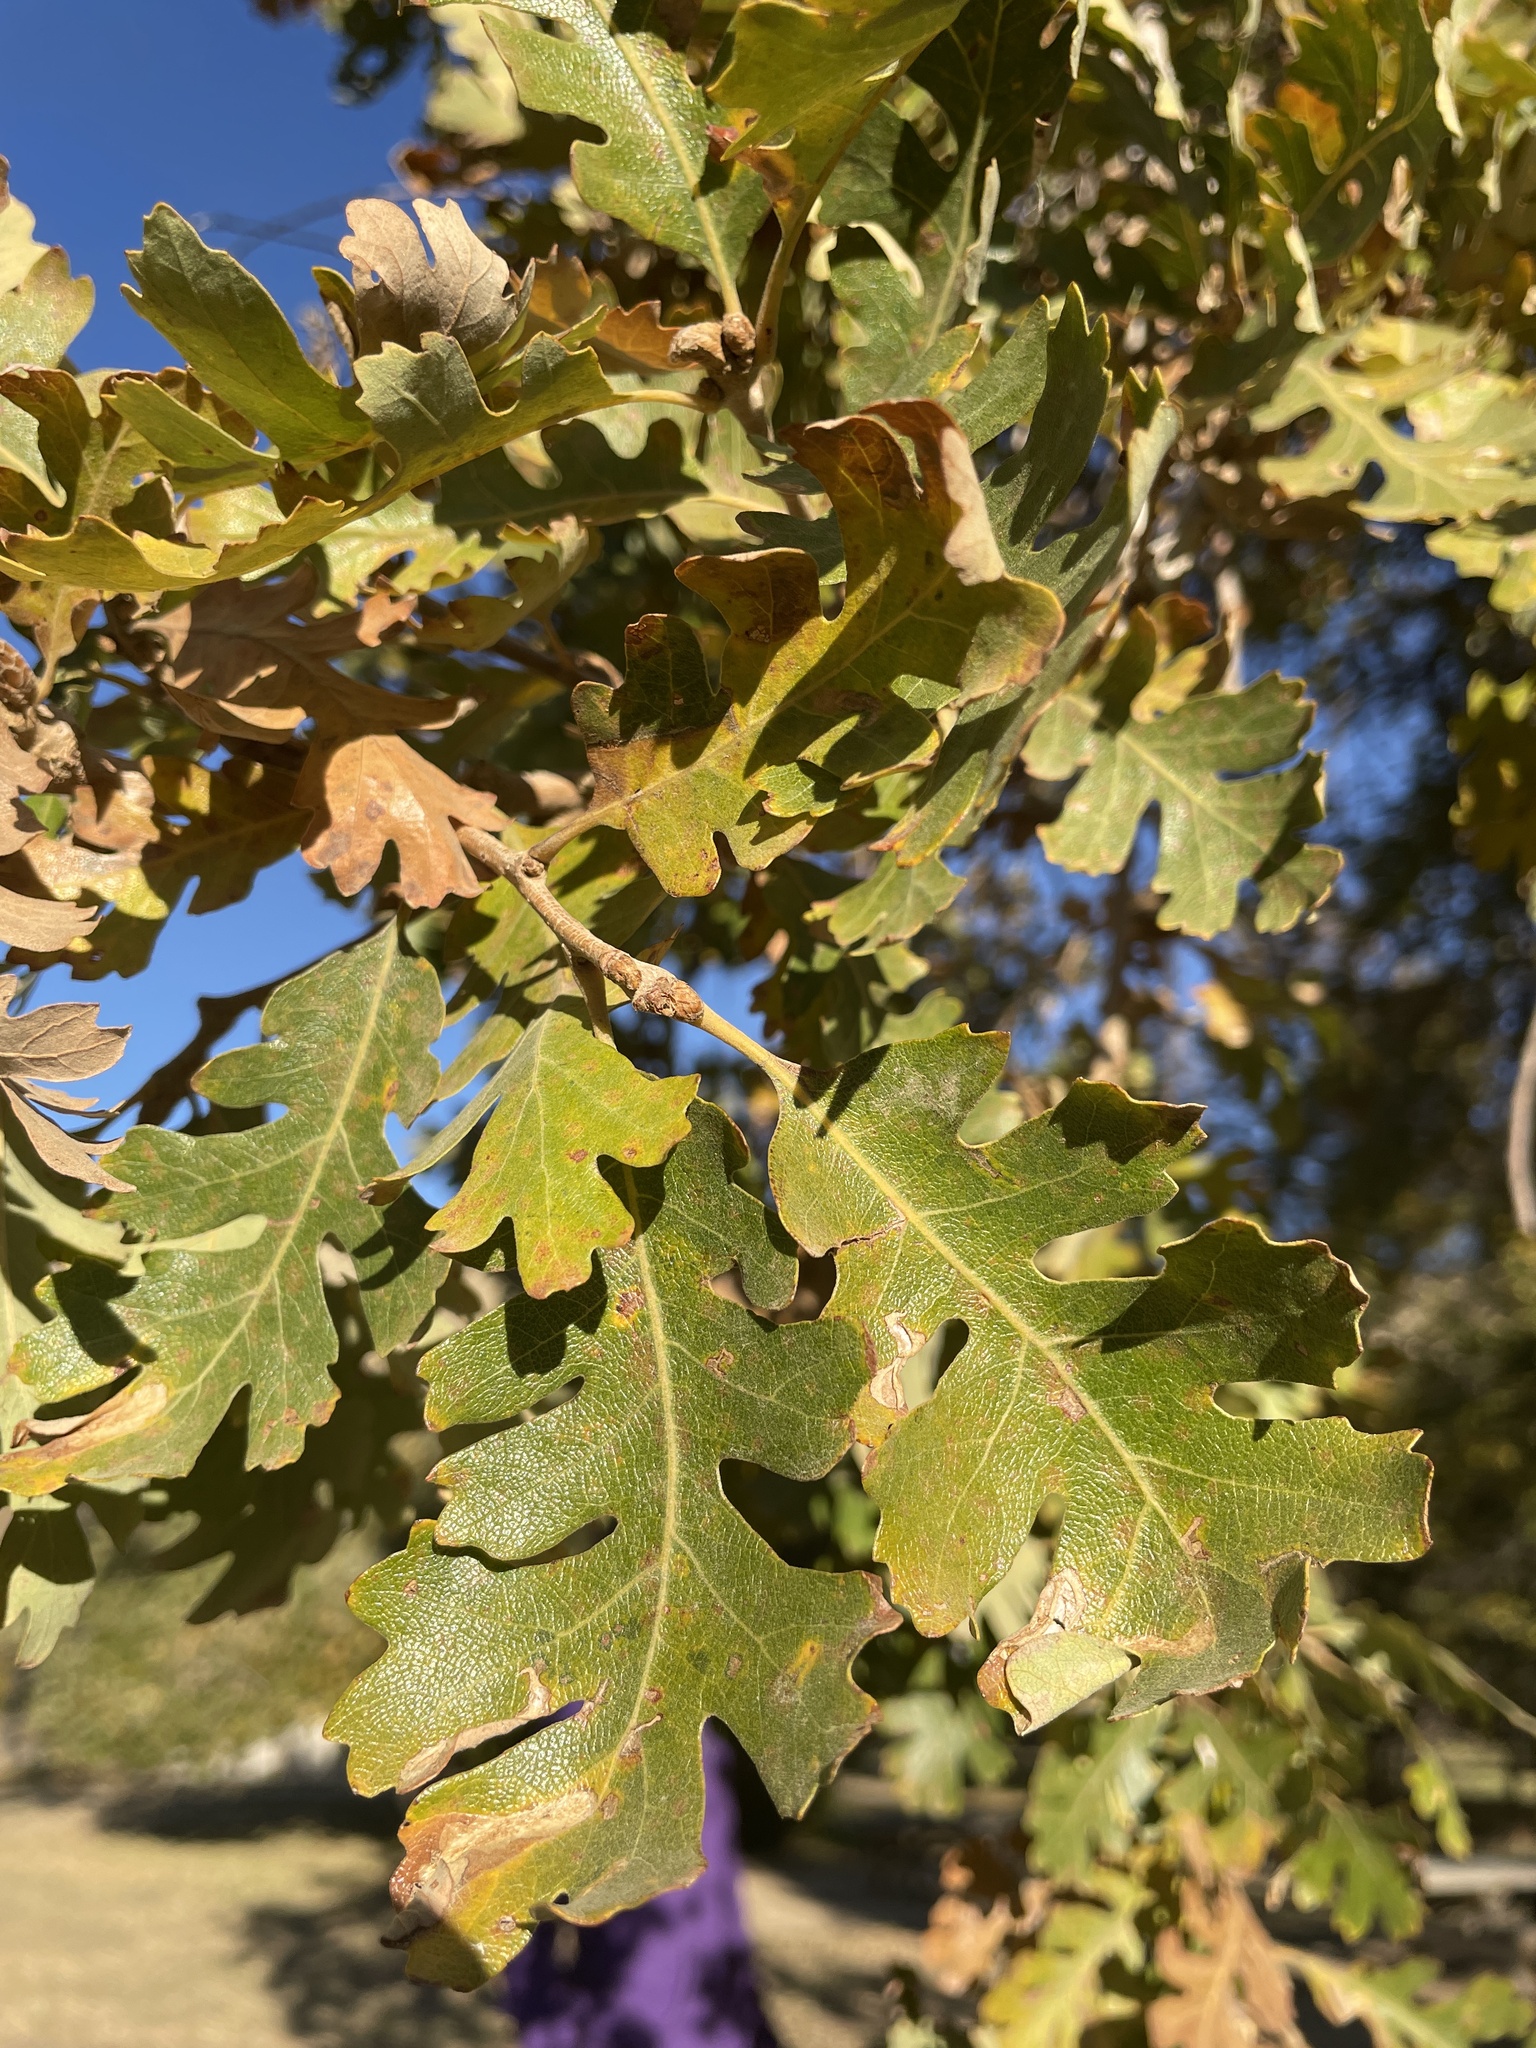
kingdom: Plantae
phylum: Tracheophyta
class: Magnoliopsida
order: Fagales
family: Fagaceae
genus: Quercus
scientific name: Quercus lobata
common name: Valley oak
